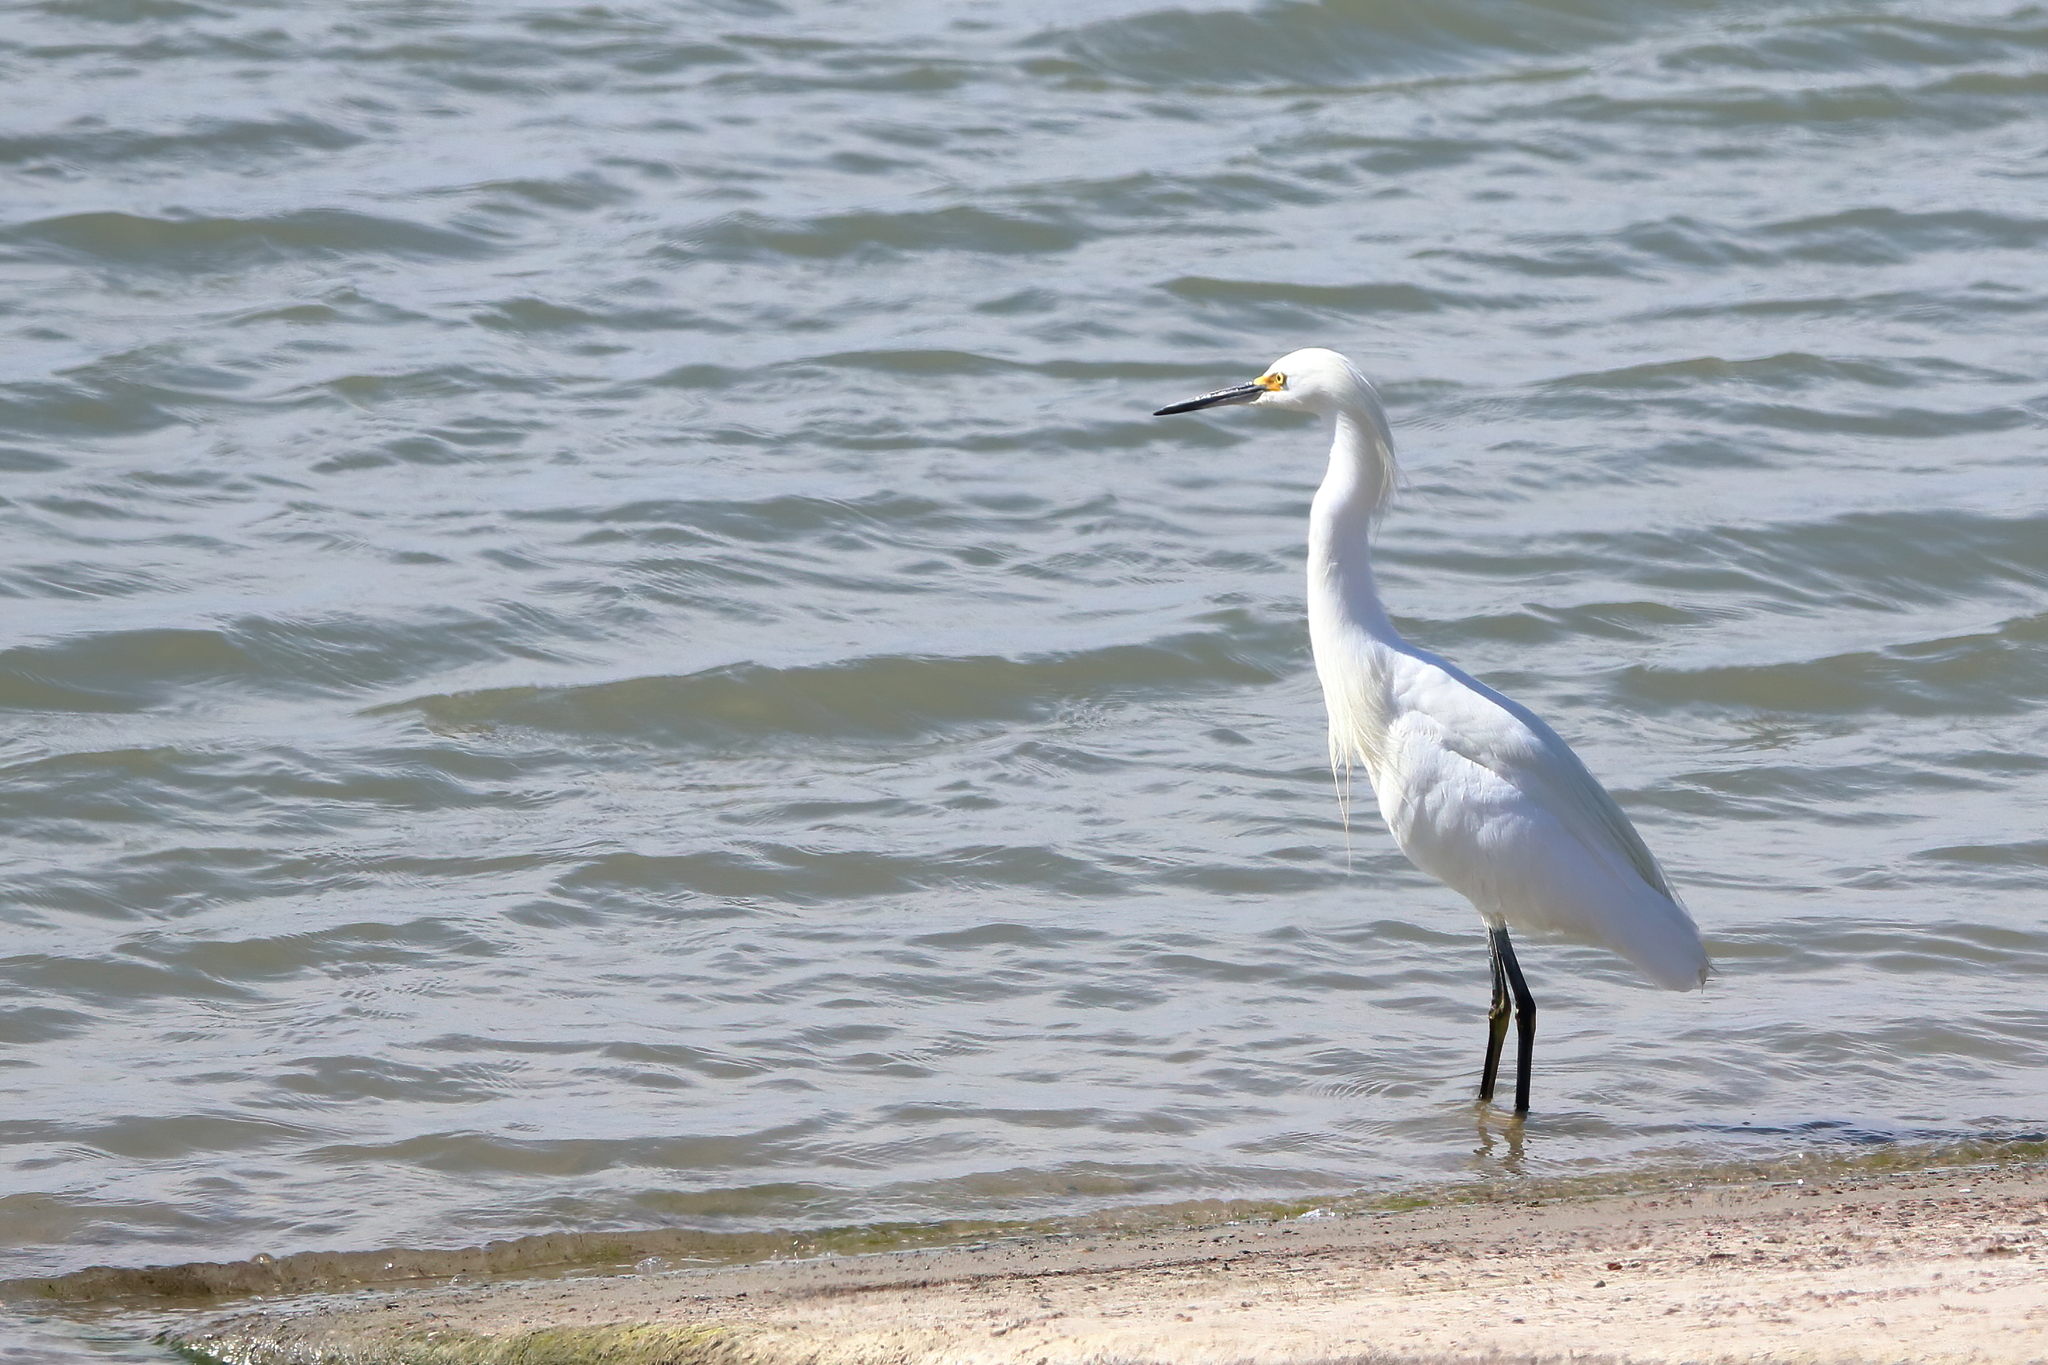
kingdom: Animalia
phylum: Chordata
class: Aves
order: Pelecaniformes
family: Ardeidae
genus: Egretta
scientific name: Egretta thula
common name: Snowy egret
